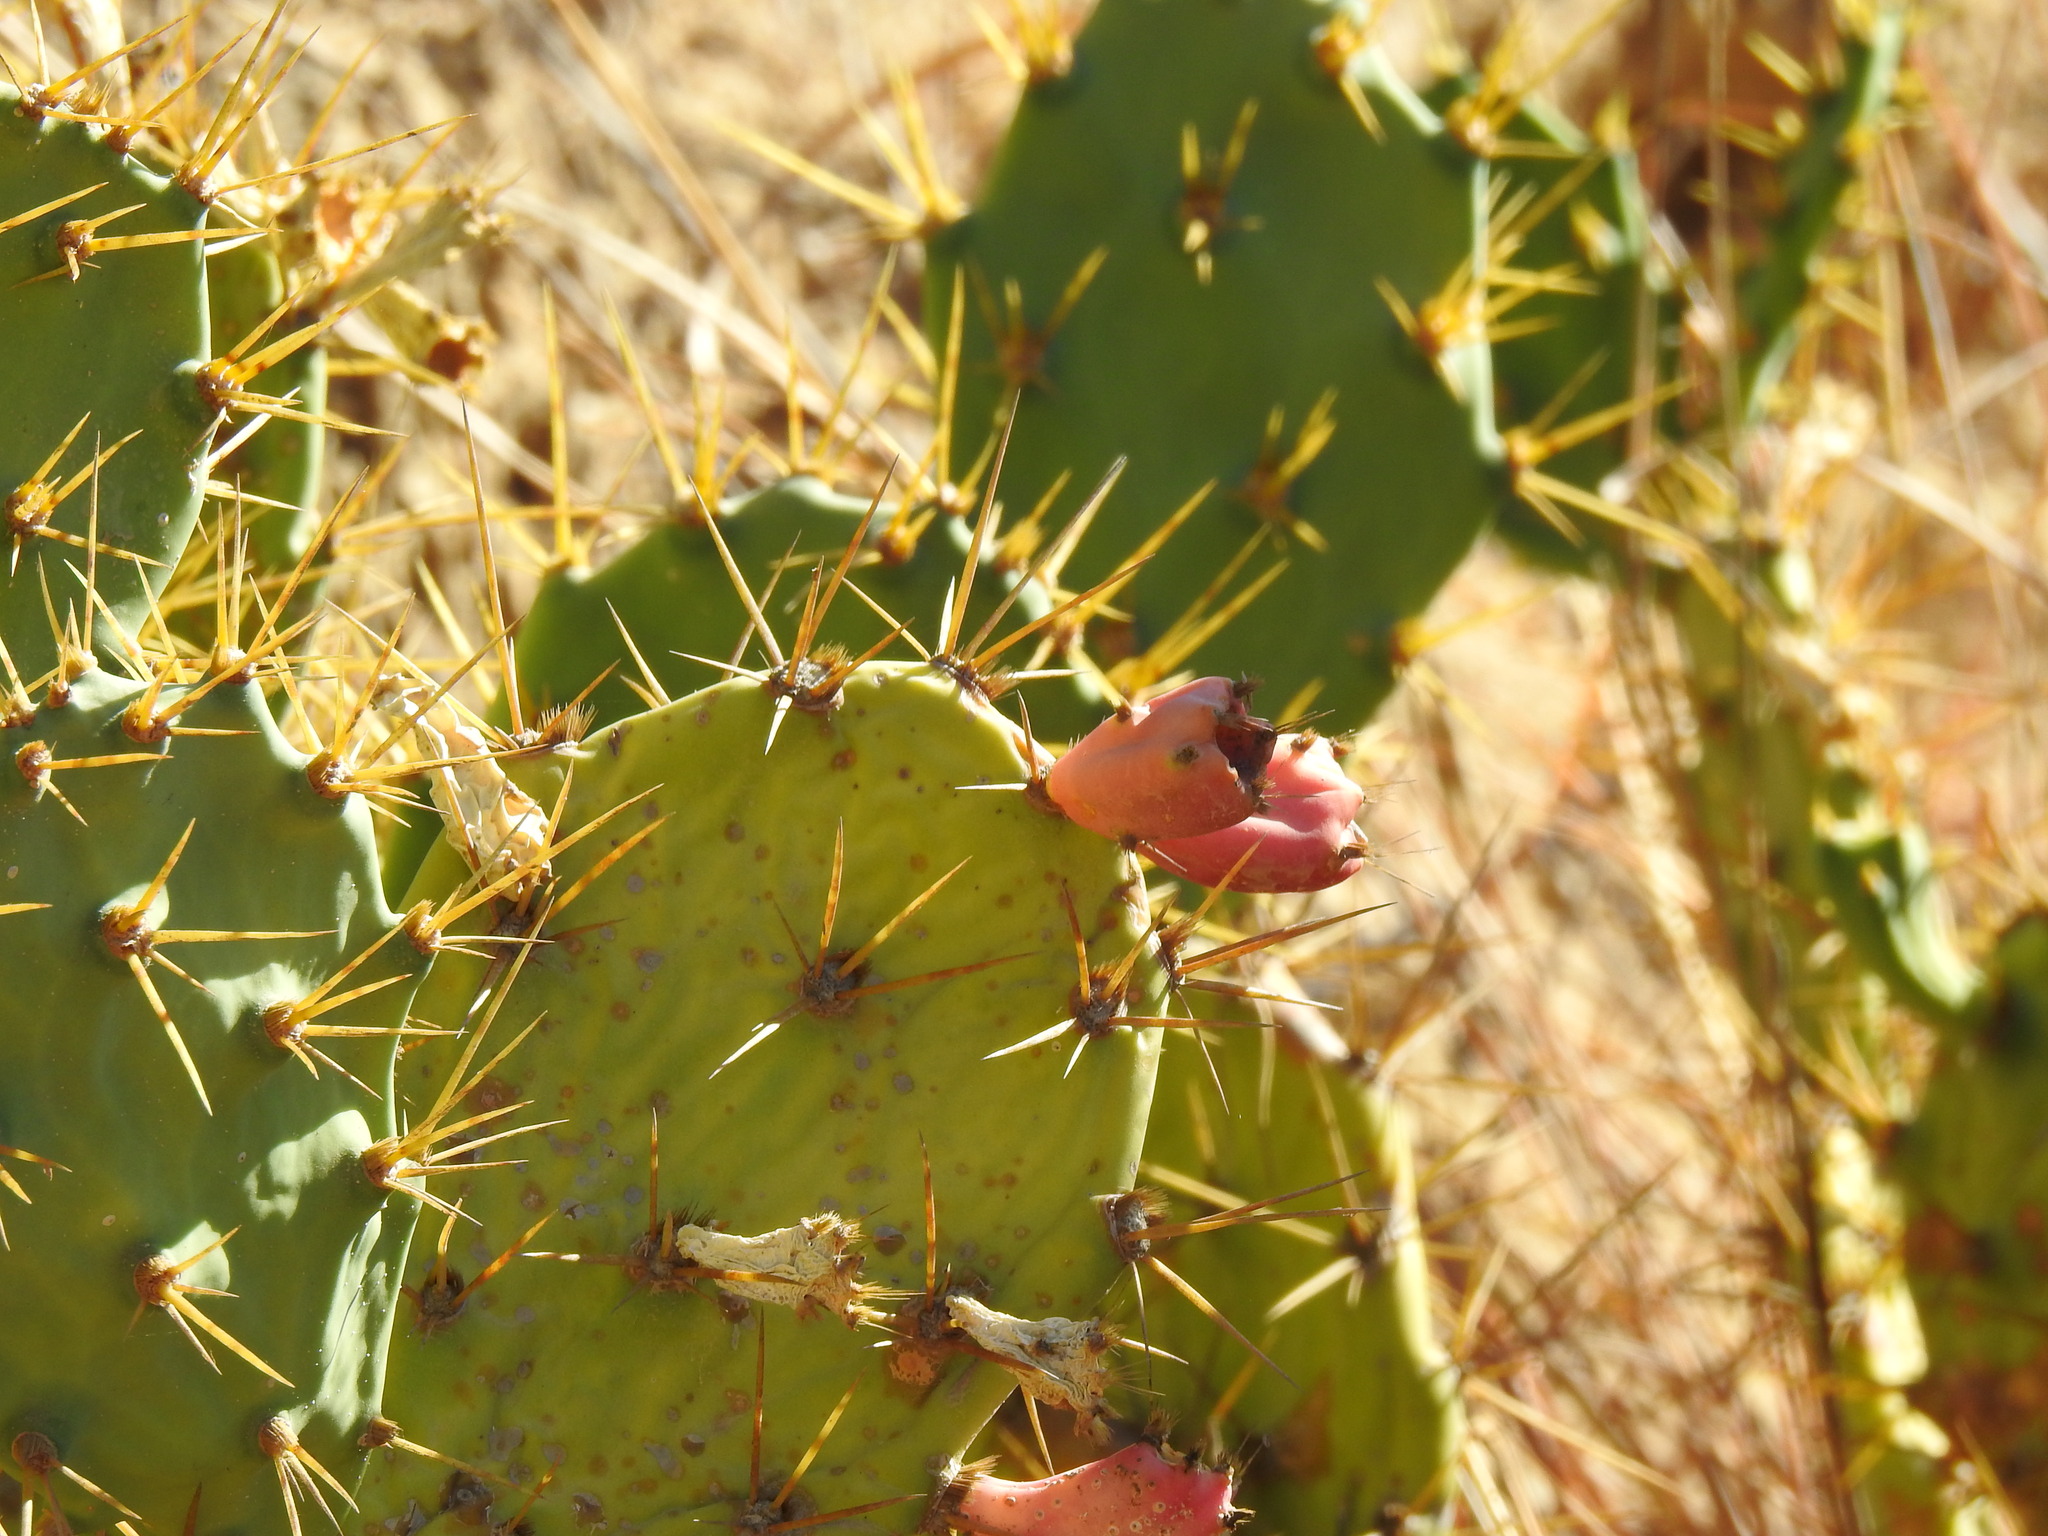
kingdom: Plantae
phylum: Tracheophyta
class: Magnoliopsida
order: Caryophyllales
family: Cactaceae
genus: Opuntia
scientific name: Opuntia stricta
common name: Erect pricklypear
